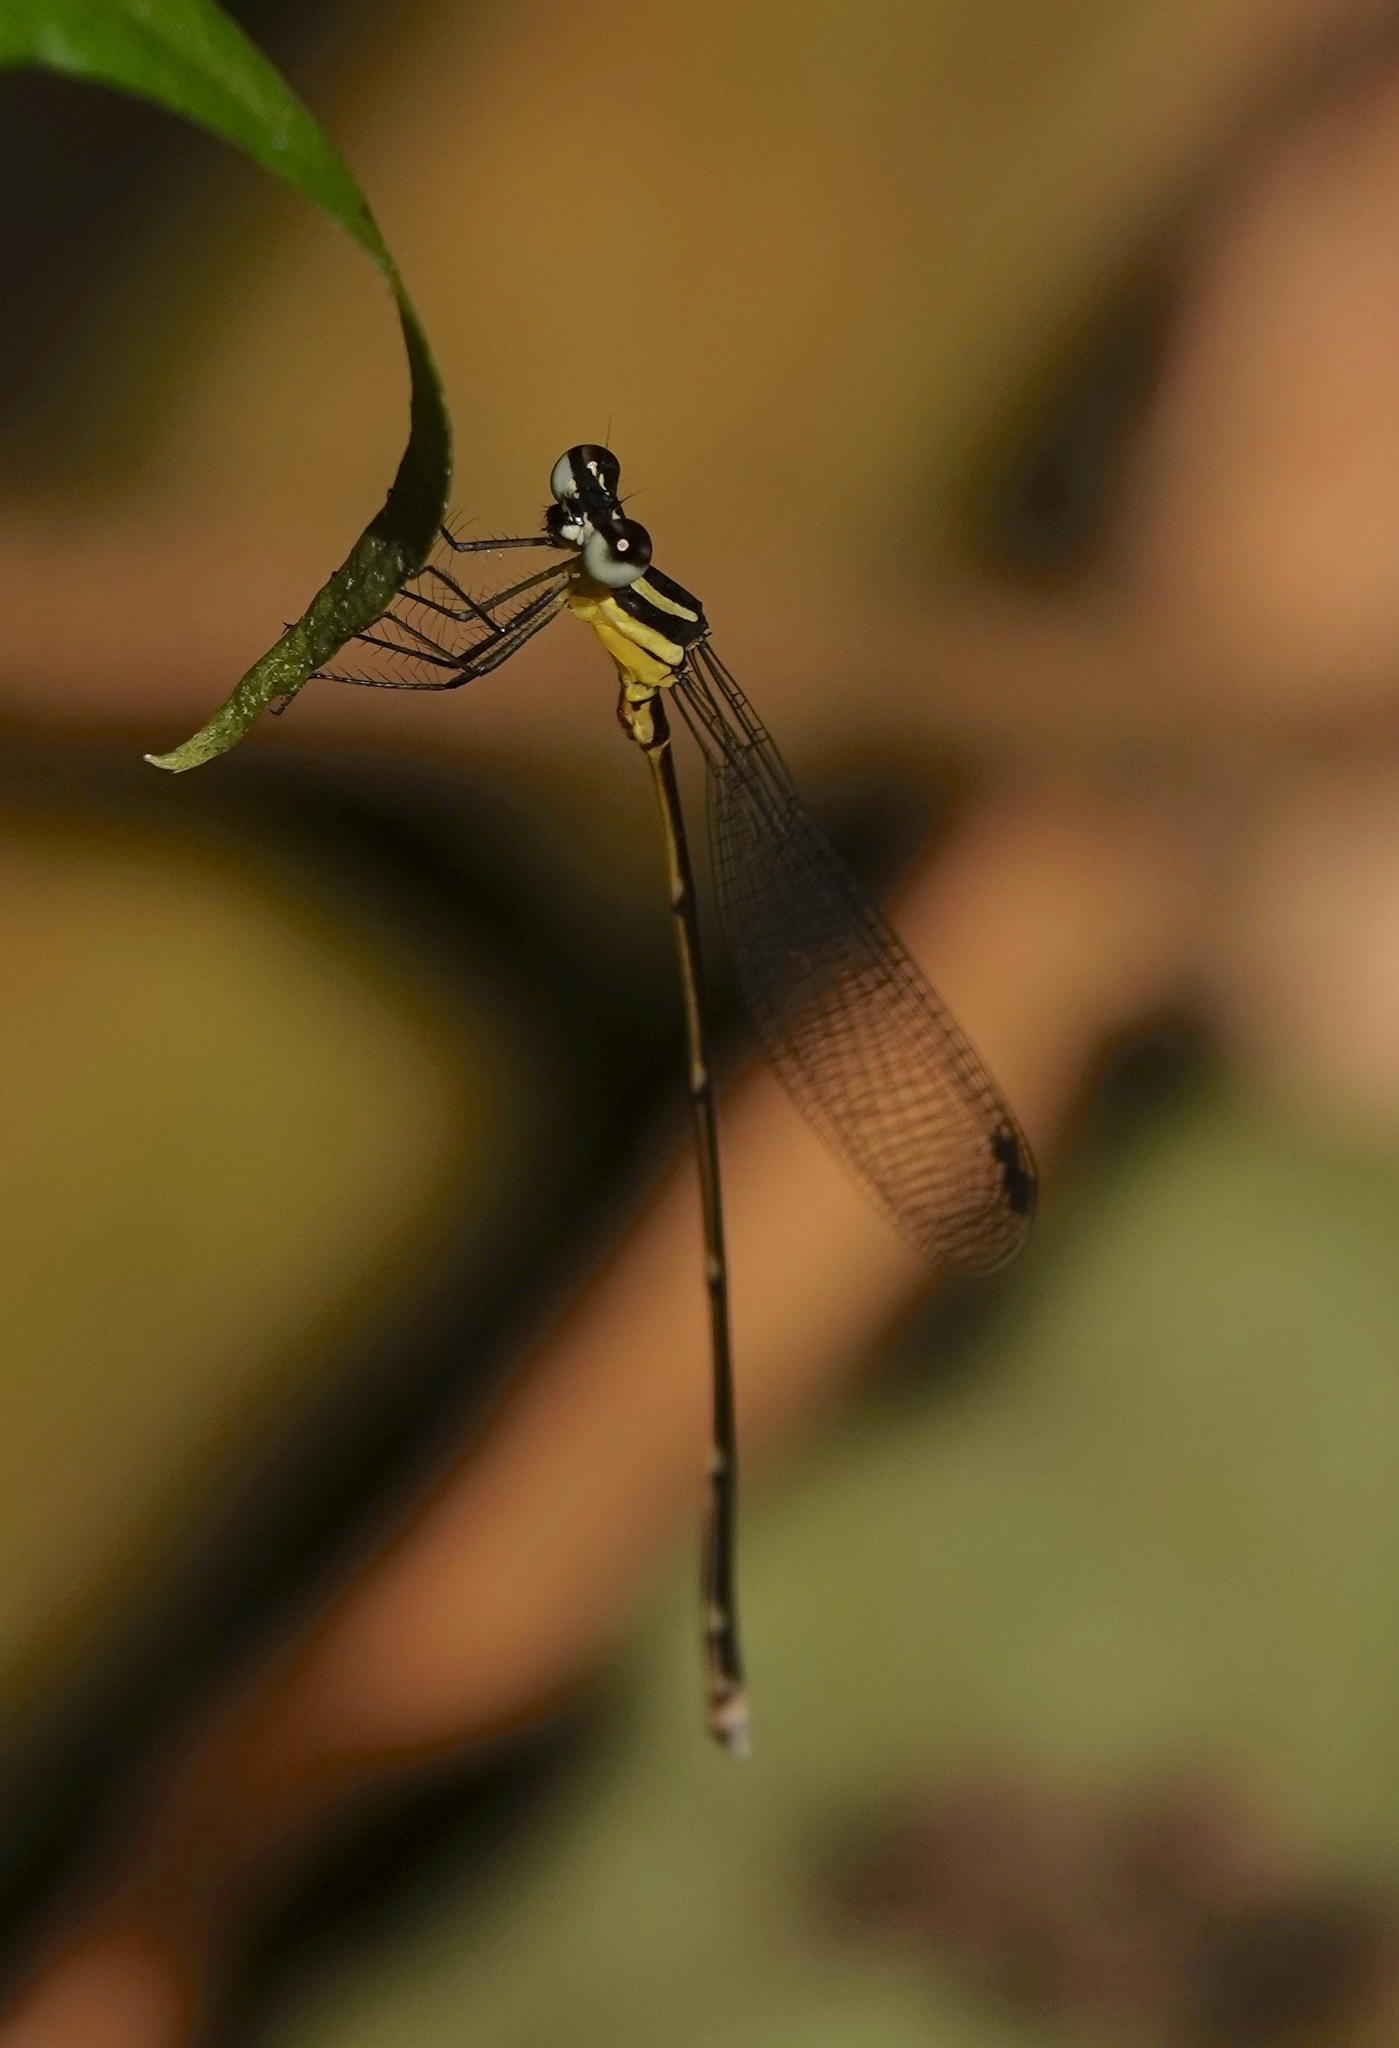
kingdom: Animalia
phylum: Arthropoda
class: Insecta
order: Odonata
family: Platycnemididae
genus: Coeliccia
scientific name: Coeliccia membranipes
